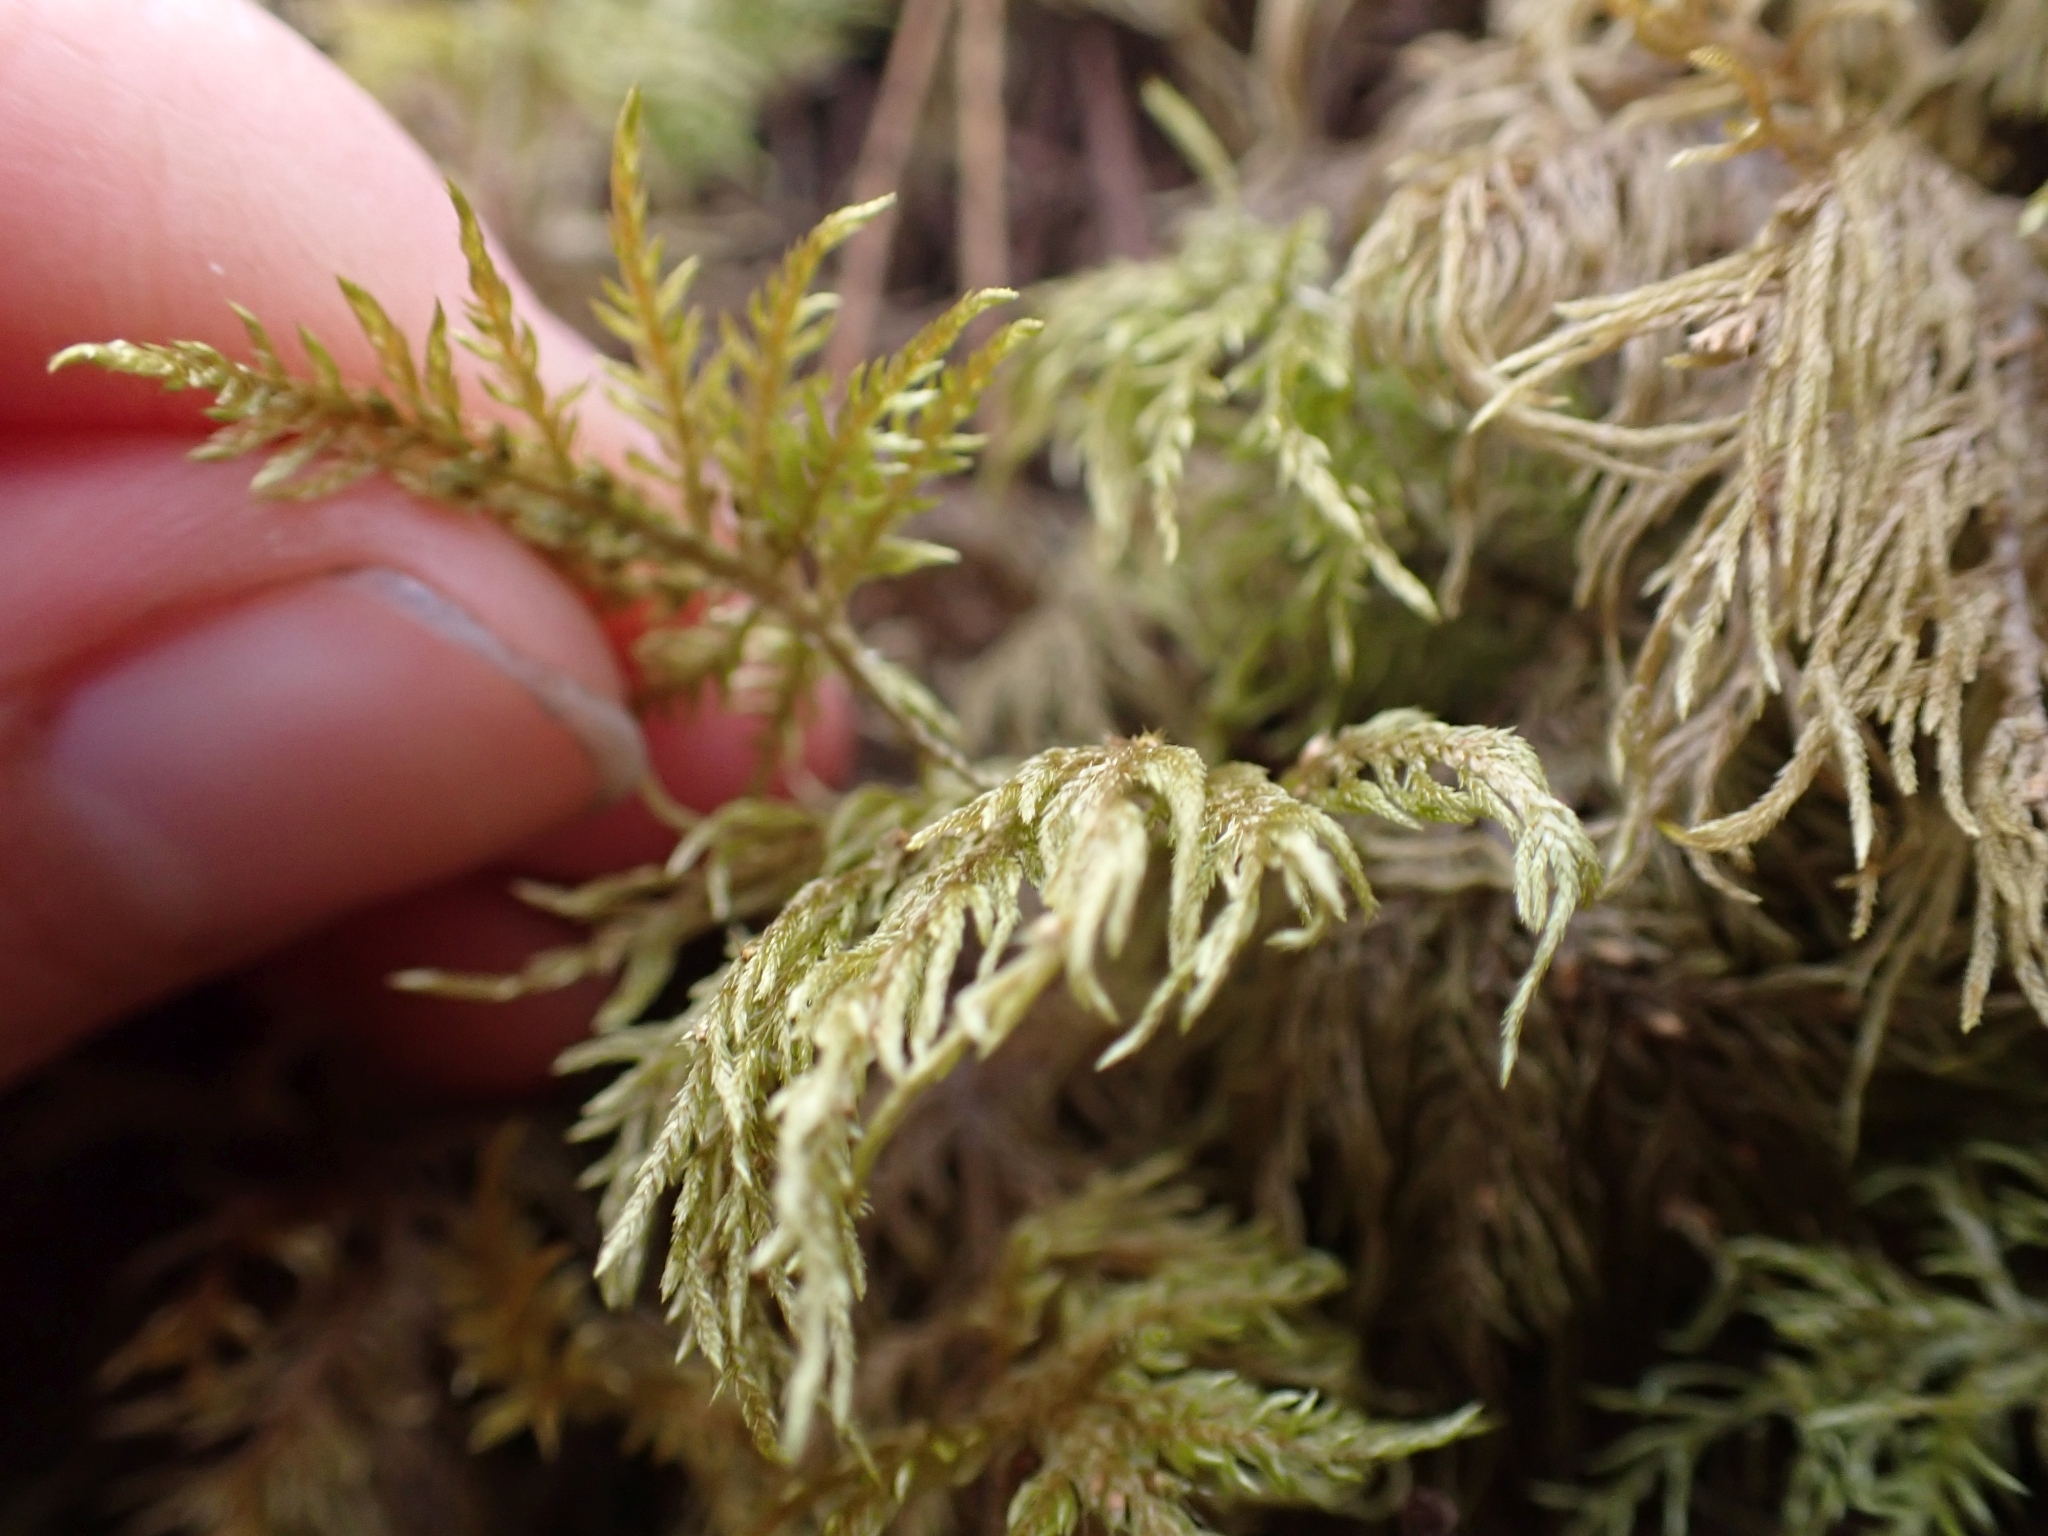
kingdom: Plantae
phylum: Bryophyta
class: Bryopsida
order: Hypnales
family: Hylocomiaceae
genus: Hylocomium
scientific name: Hylocomium splendens
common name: Stairstep moss
